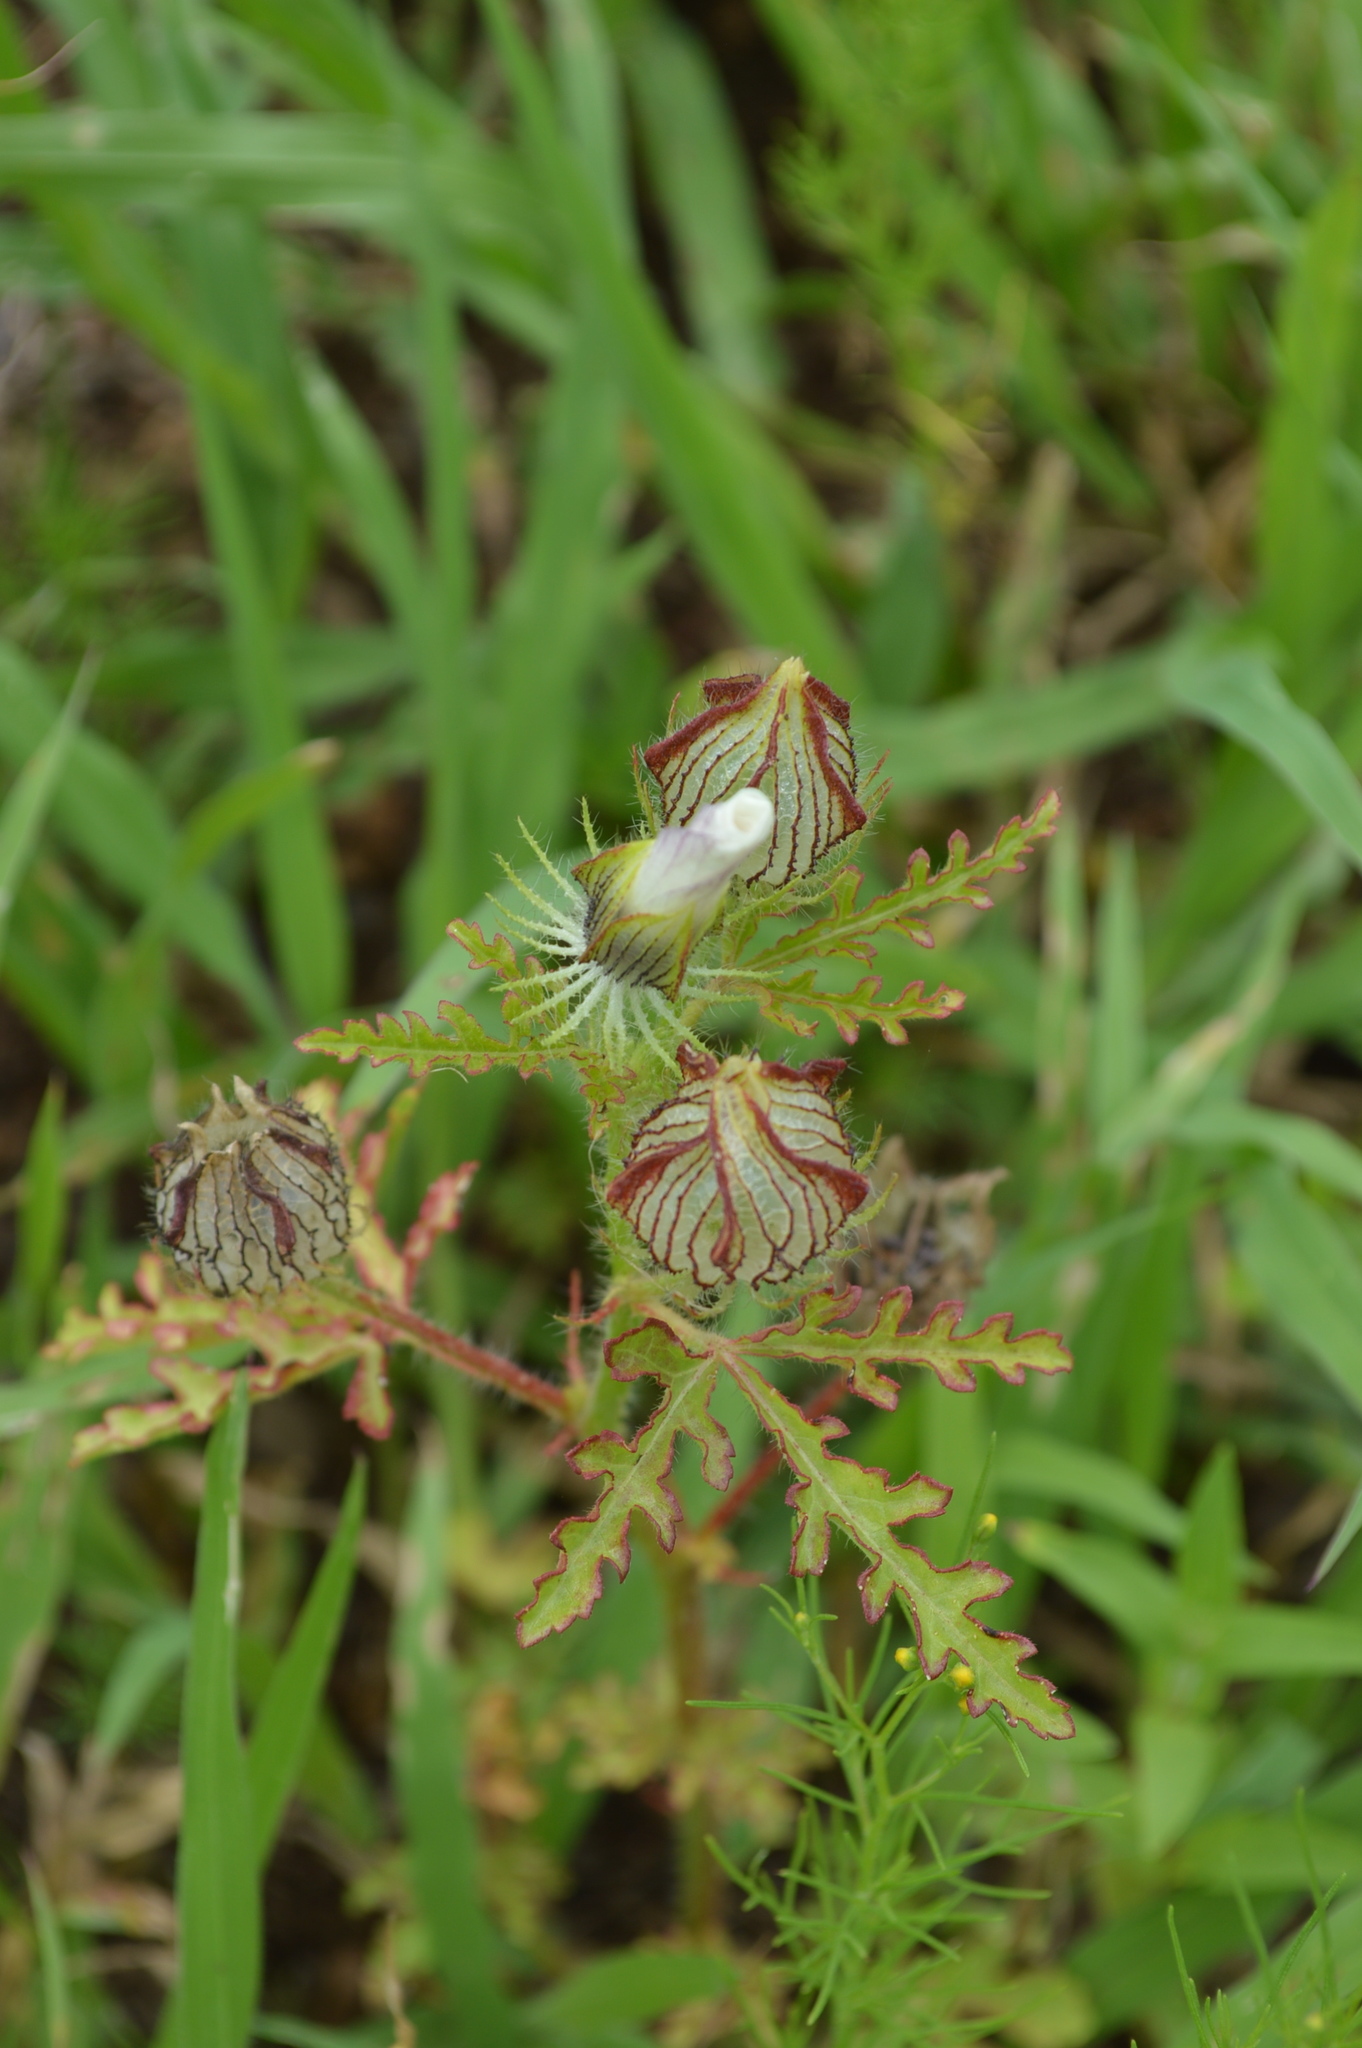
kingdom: Plantae
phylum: Tracheophyta
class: Magnoliopsida
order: Malvales
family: Malvaceae
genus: Hibiscus
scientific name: Hibiscus trionum
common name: Bladder ketmia
